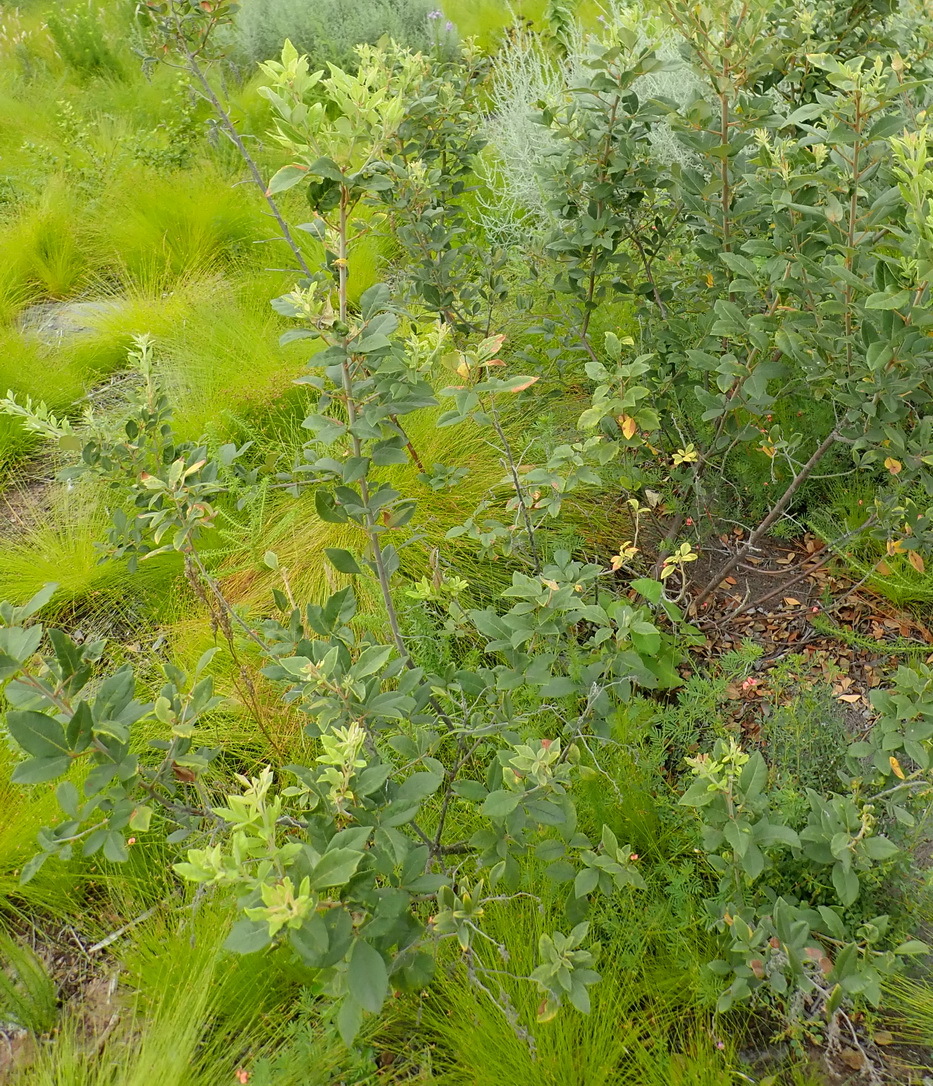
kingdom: Plantae
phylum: Tracheophyta
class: Magnoliopsida
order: Sapindales
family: Anacardiaceae
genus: Searsia
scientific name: Searsia tomentosa
